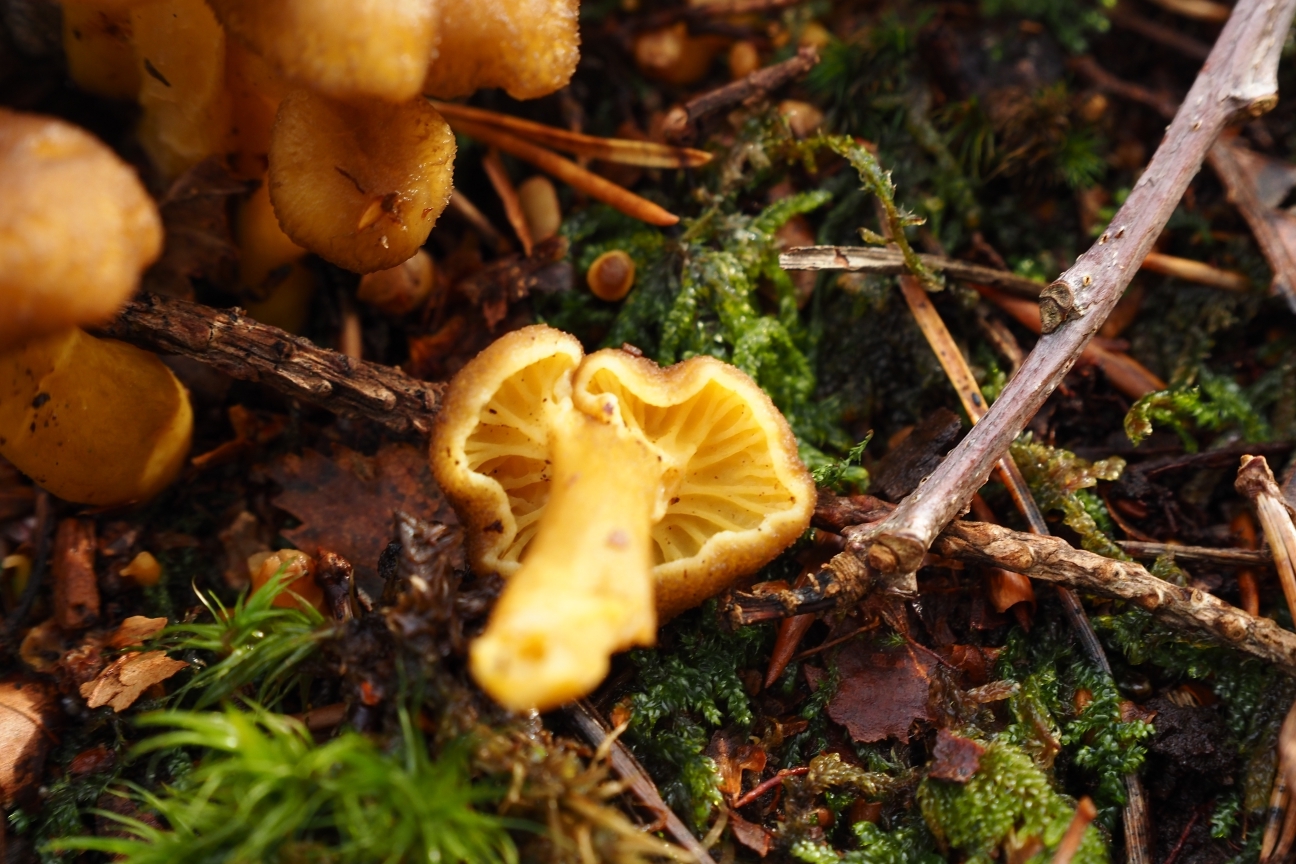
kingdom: Fungi
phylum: Basidiomycota
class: Agaricomycetes
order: Cantharellales
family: Hydnaceae
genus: Craterellus
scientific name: Craterellus tubaeformis
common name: Yellowfoot
